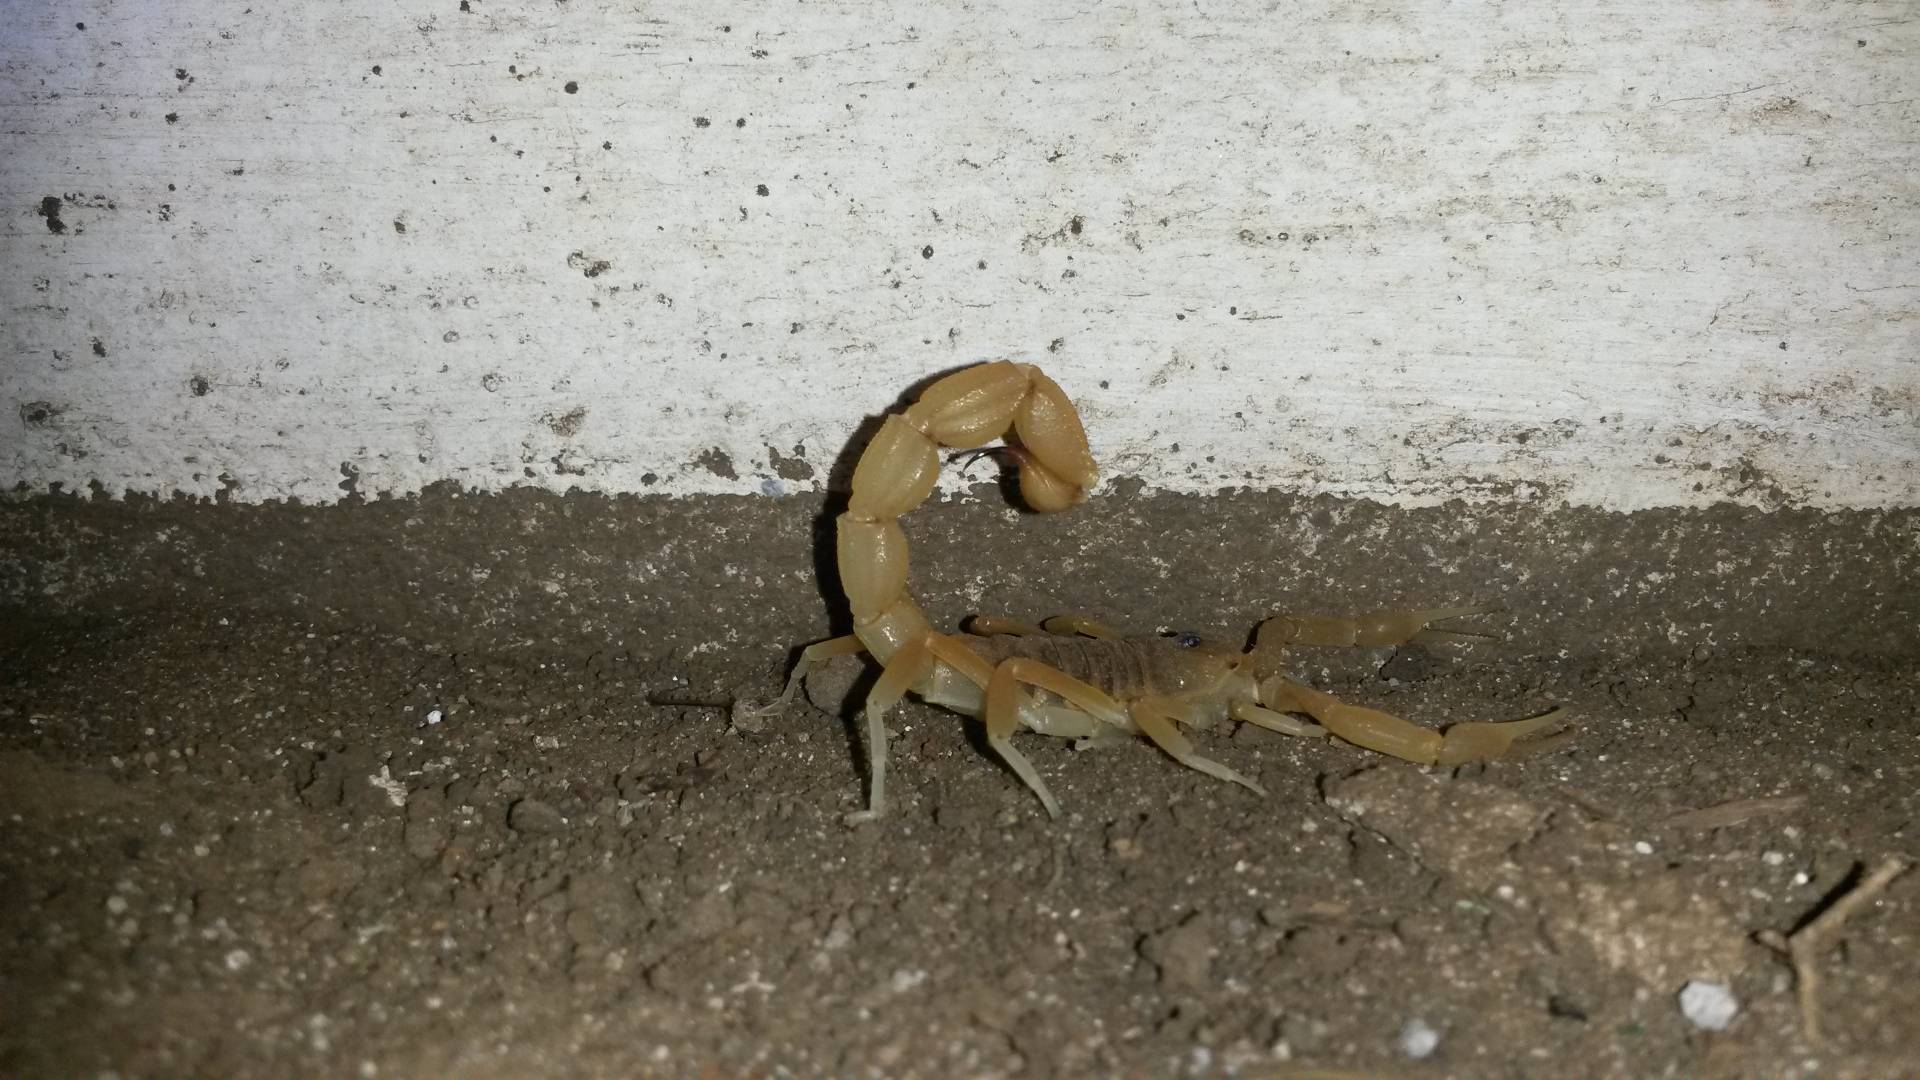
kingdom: Animalia
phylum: Arthropoda
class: Arachnida
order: Scorpiones
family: Buthidae
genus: Parabuthus
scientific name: Parabuthus mossambicensis
